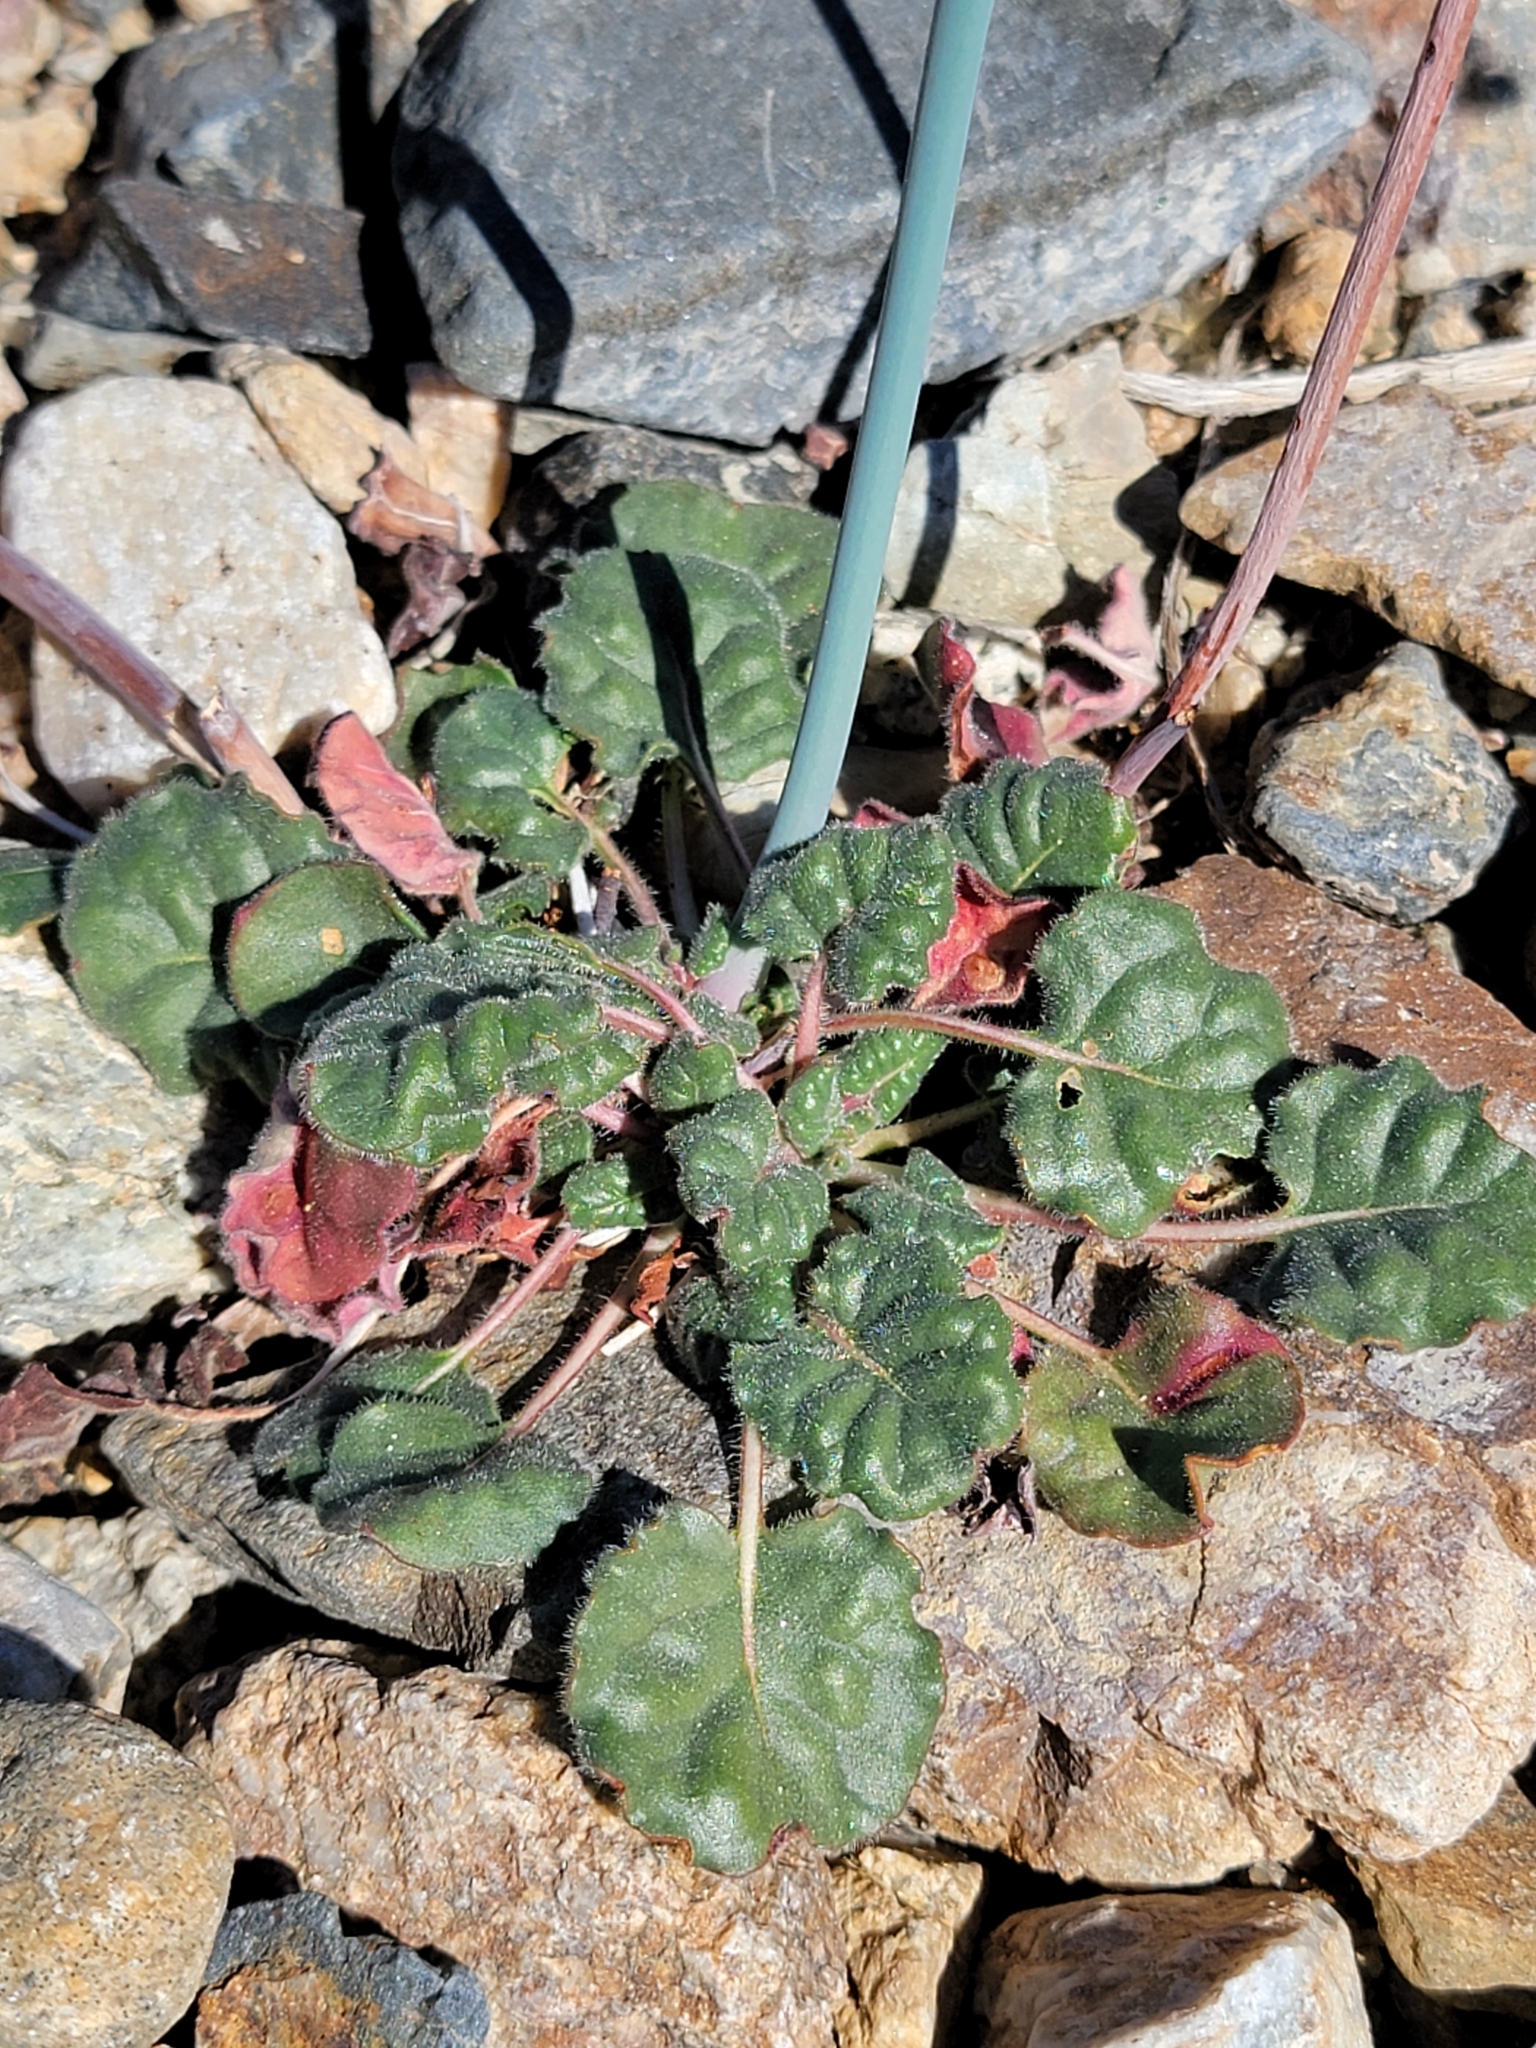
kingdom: Plantae
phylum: Tracheophyta
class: Magnoliopsida
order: Caryophyllales
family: Polygonaceae
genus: Eriogonum
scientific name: Eriogonum inflatum
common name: Desert trumpet
